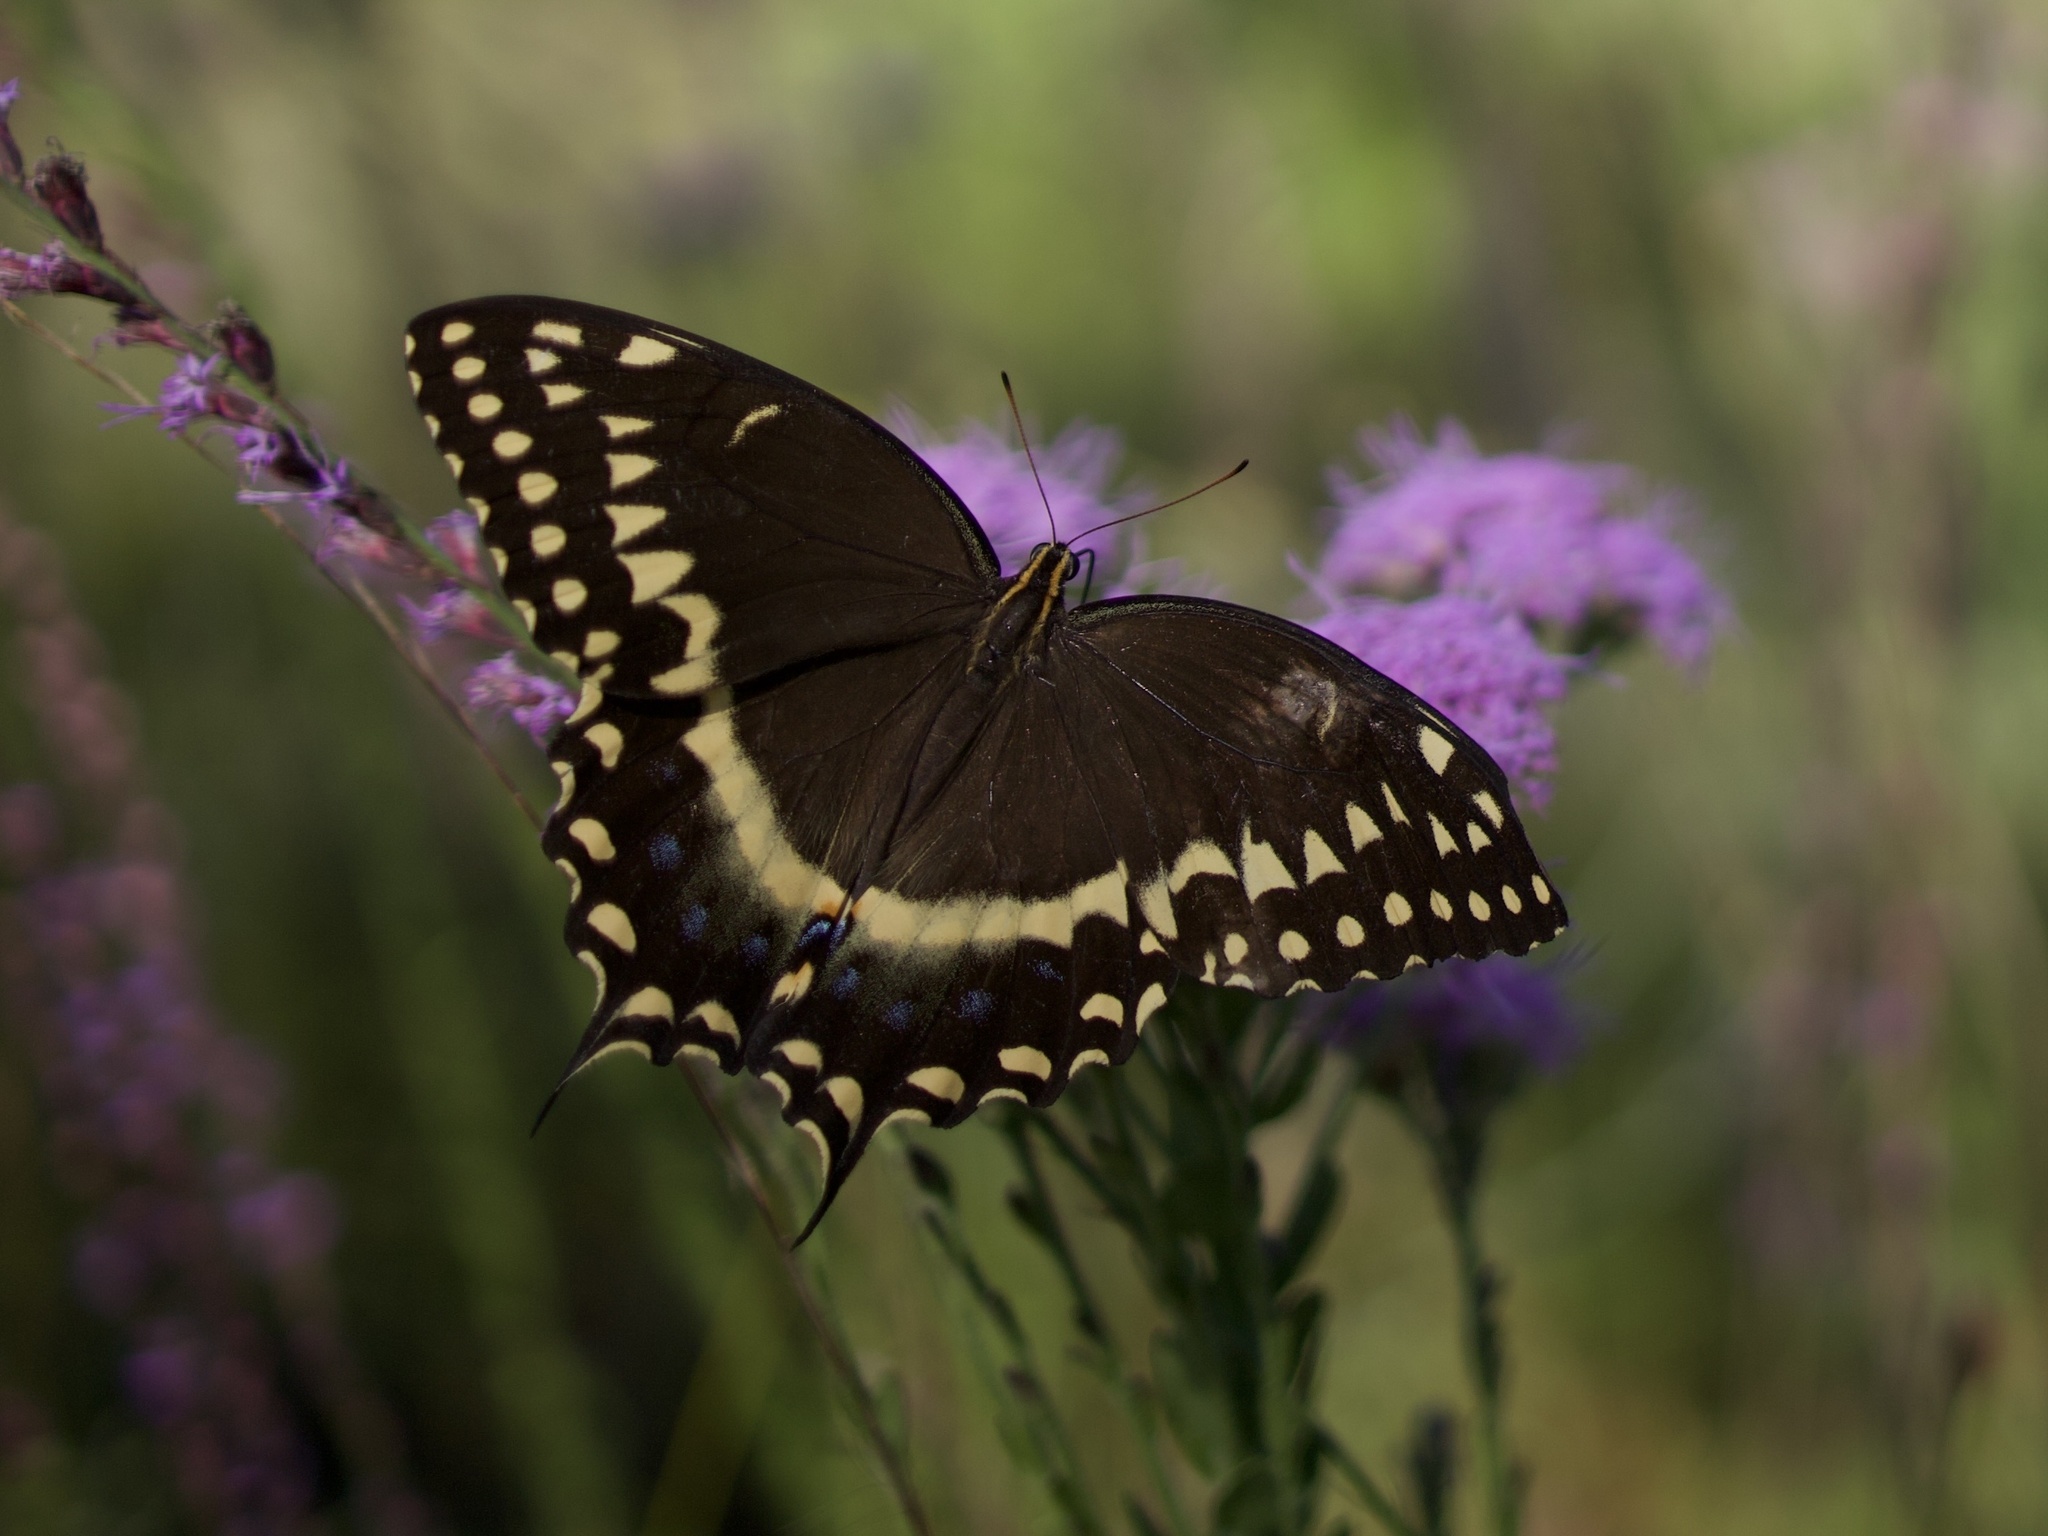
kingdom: Animalia
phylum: Arthropoda
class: Insecta
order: Lepidoptera
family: Papilionidae
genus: Papilio
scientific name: Papilio palamedes
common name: Palamedes swallowtail
